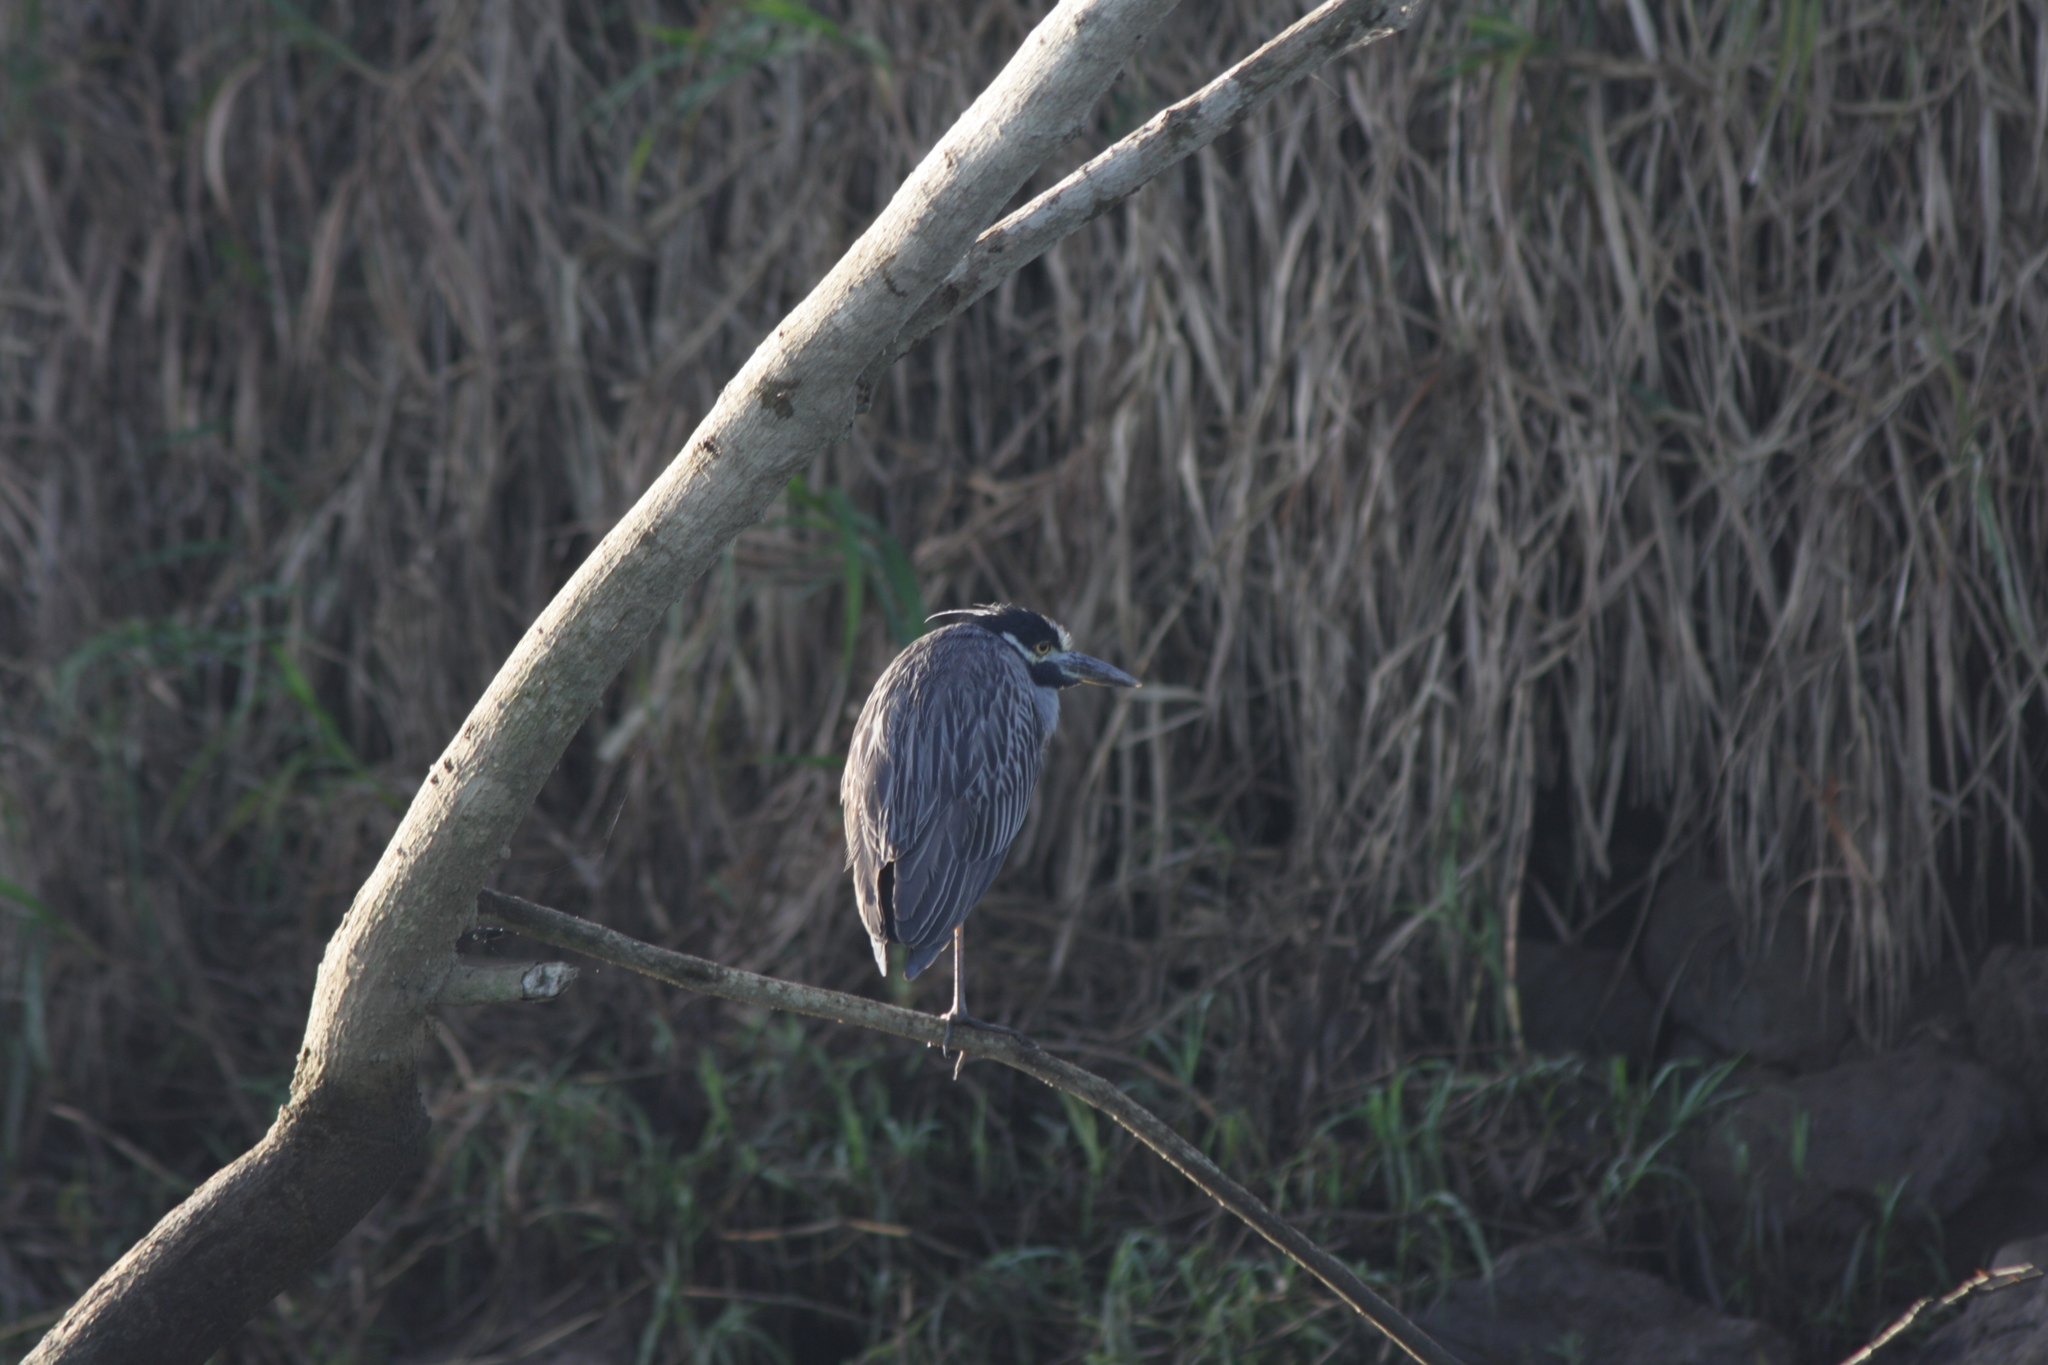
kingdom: Animalia
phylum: Chordata
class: Aves
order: Pelecaniformes
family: Ardeidae
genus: Nyctanassa
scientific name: Nyctanassa violacea
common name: Yellow-crowned night heron
